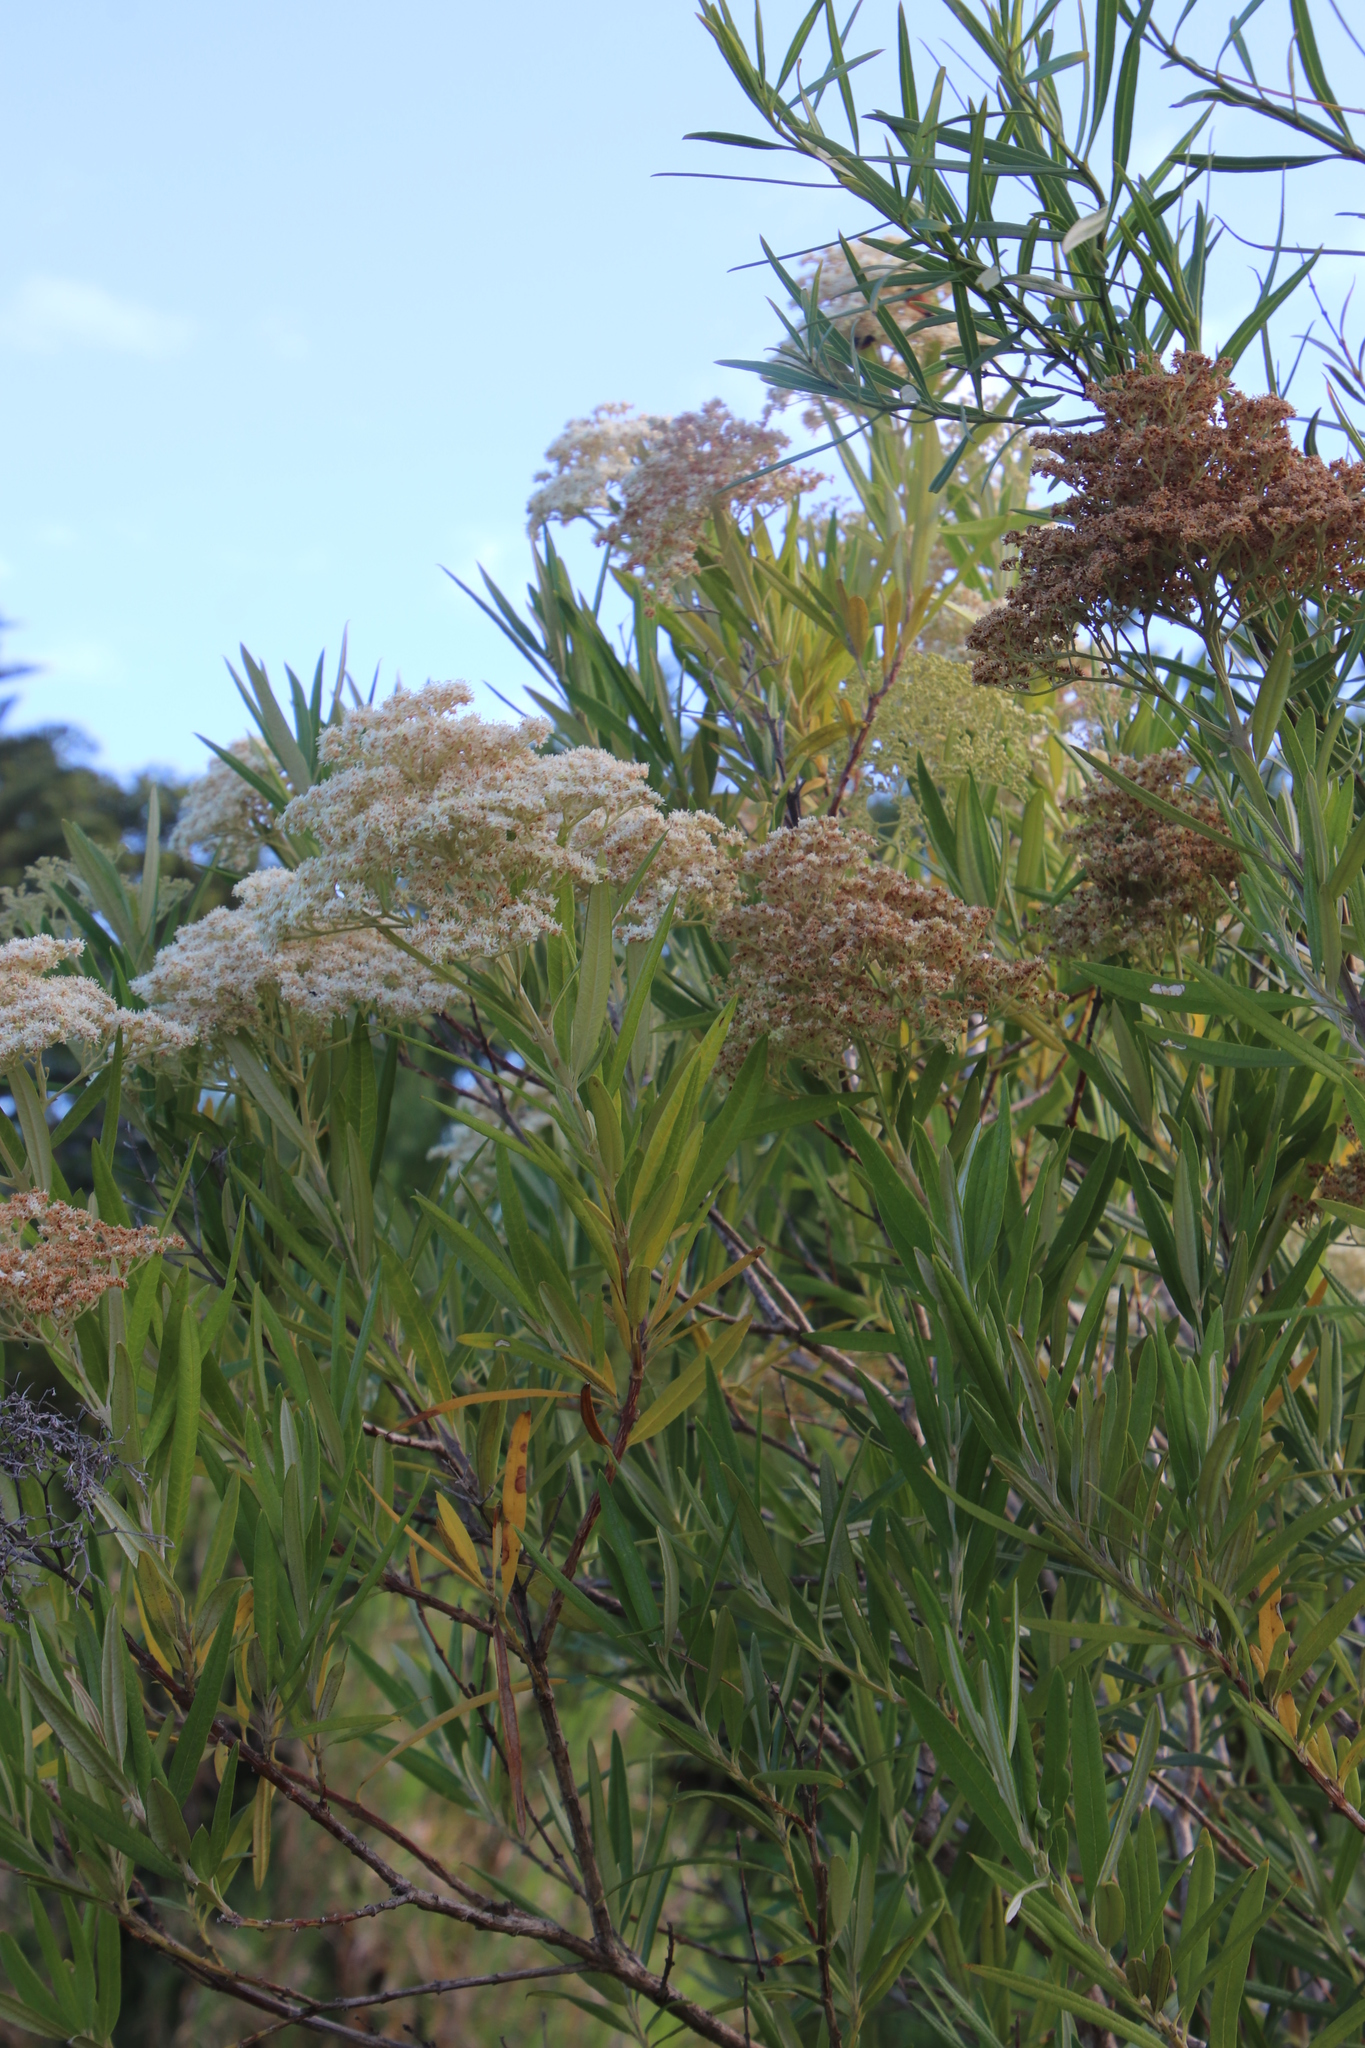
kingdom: Plantae
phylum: Tracheophyta
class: Magnoliopsida
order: Lamiales
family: Scrophulariaceae
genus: Buddleja
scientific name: Buddleja saligna
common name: False olive
